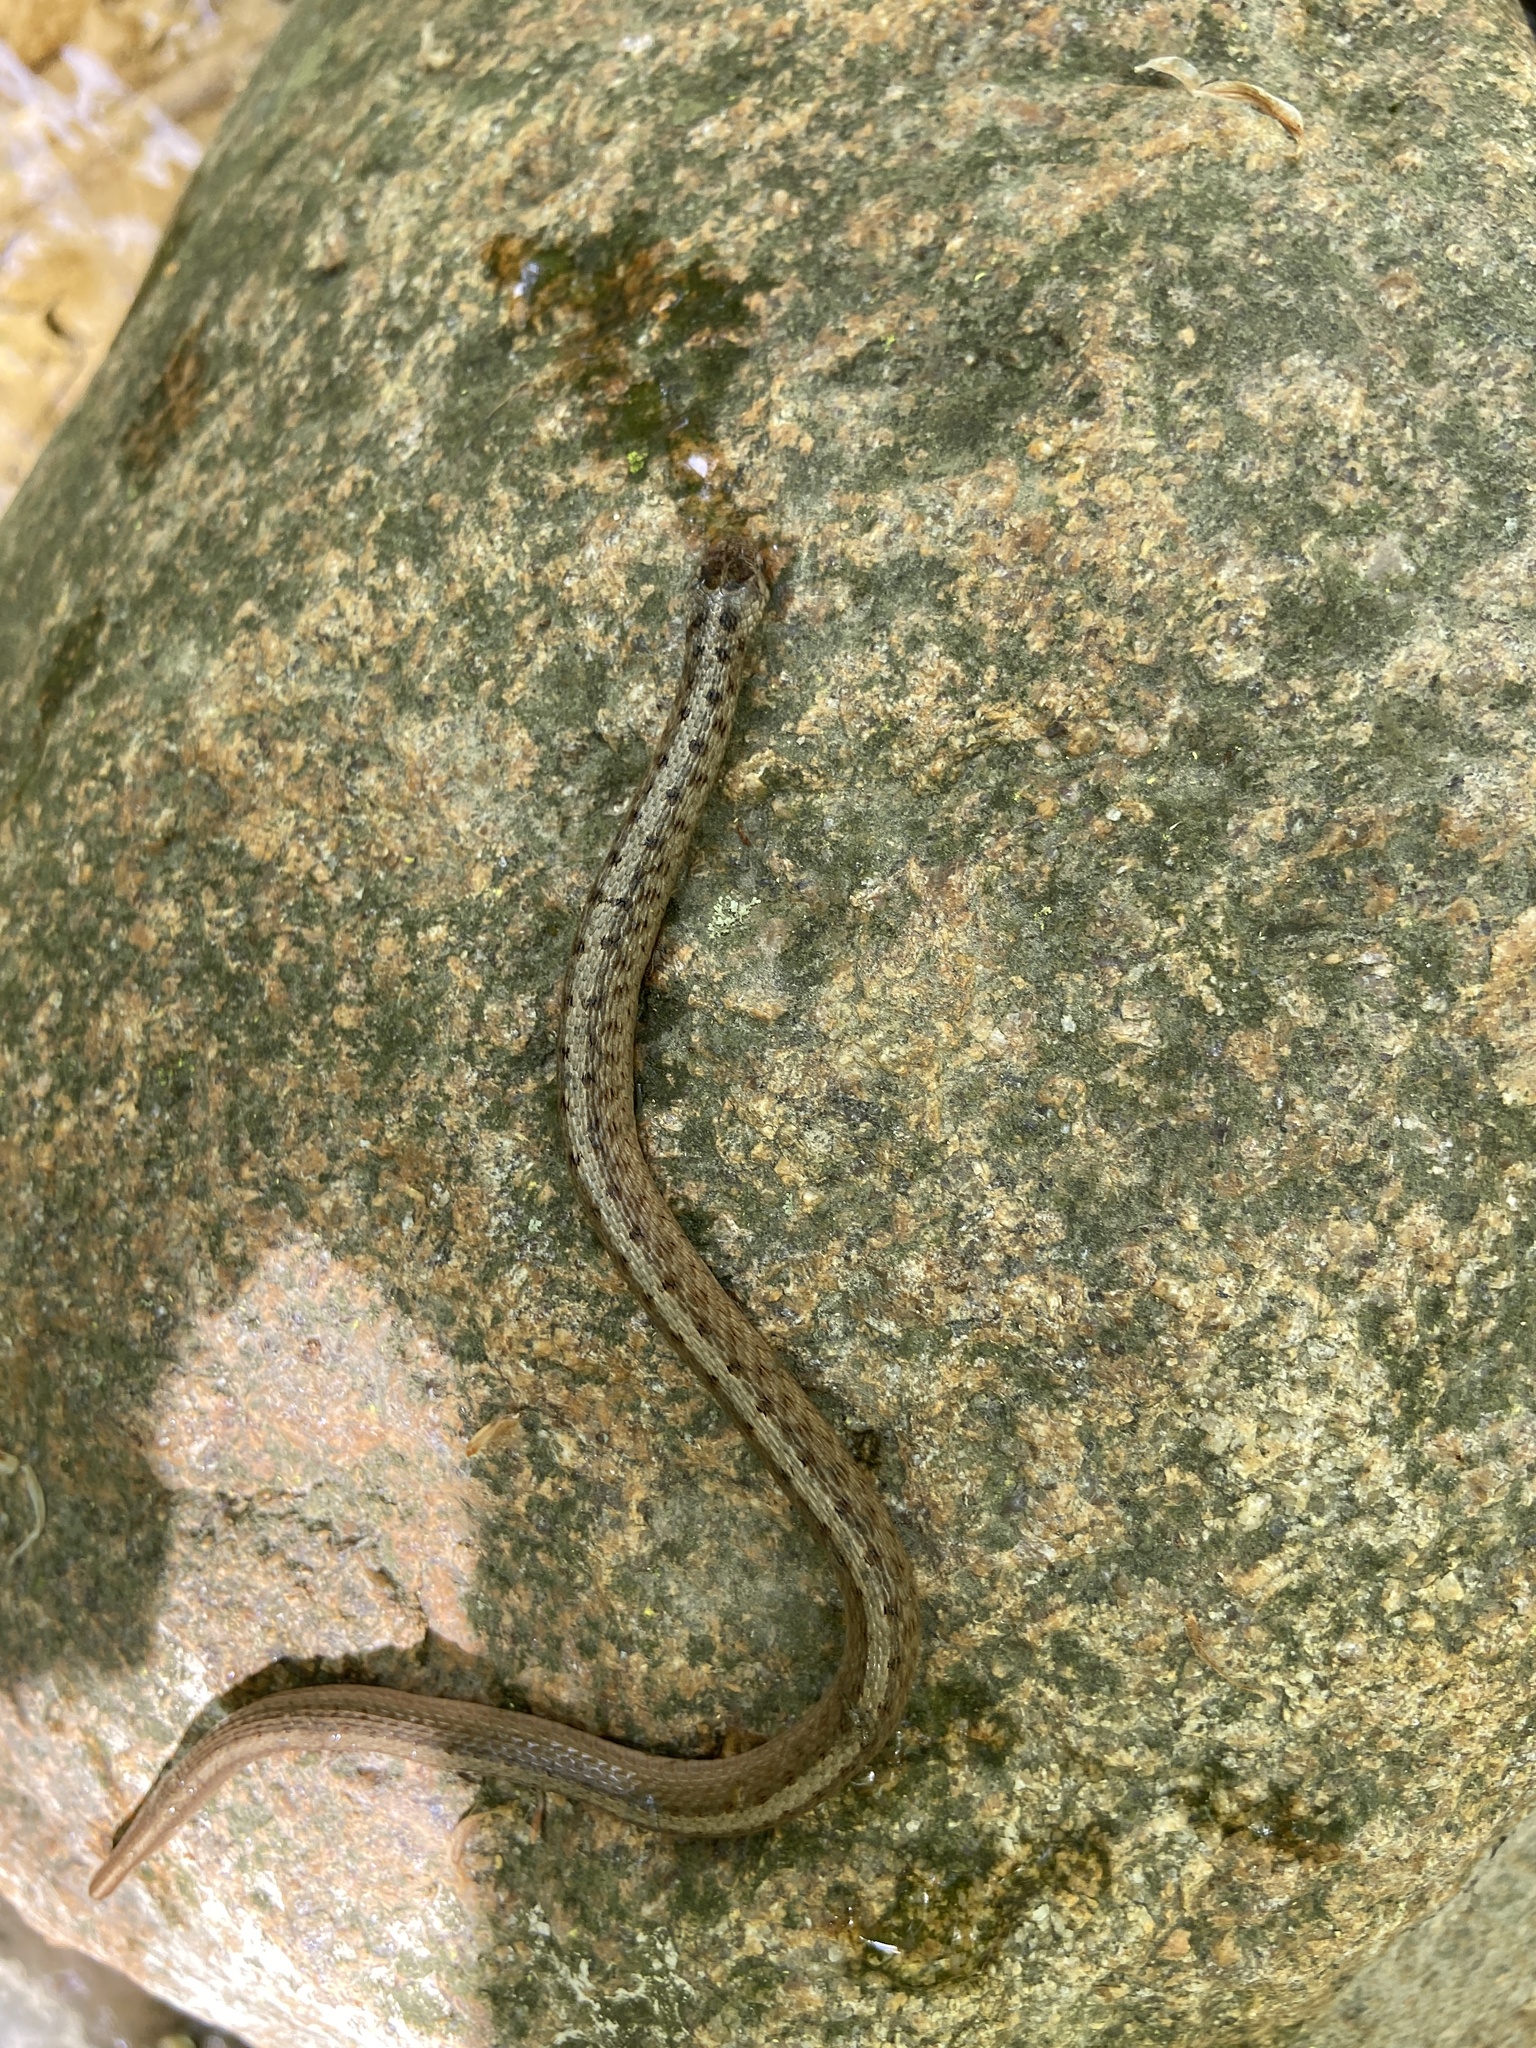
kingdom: Animalia
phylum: Chordata
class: Squamata
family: Colubridae
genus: Storeria
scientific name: Storeria dekayi
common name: (dekay’s) brown snake
